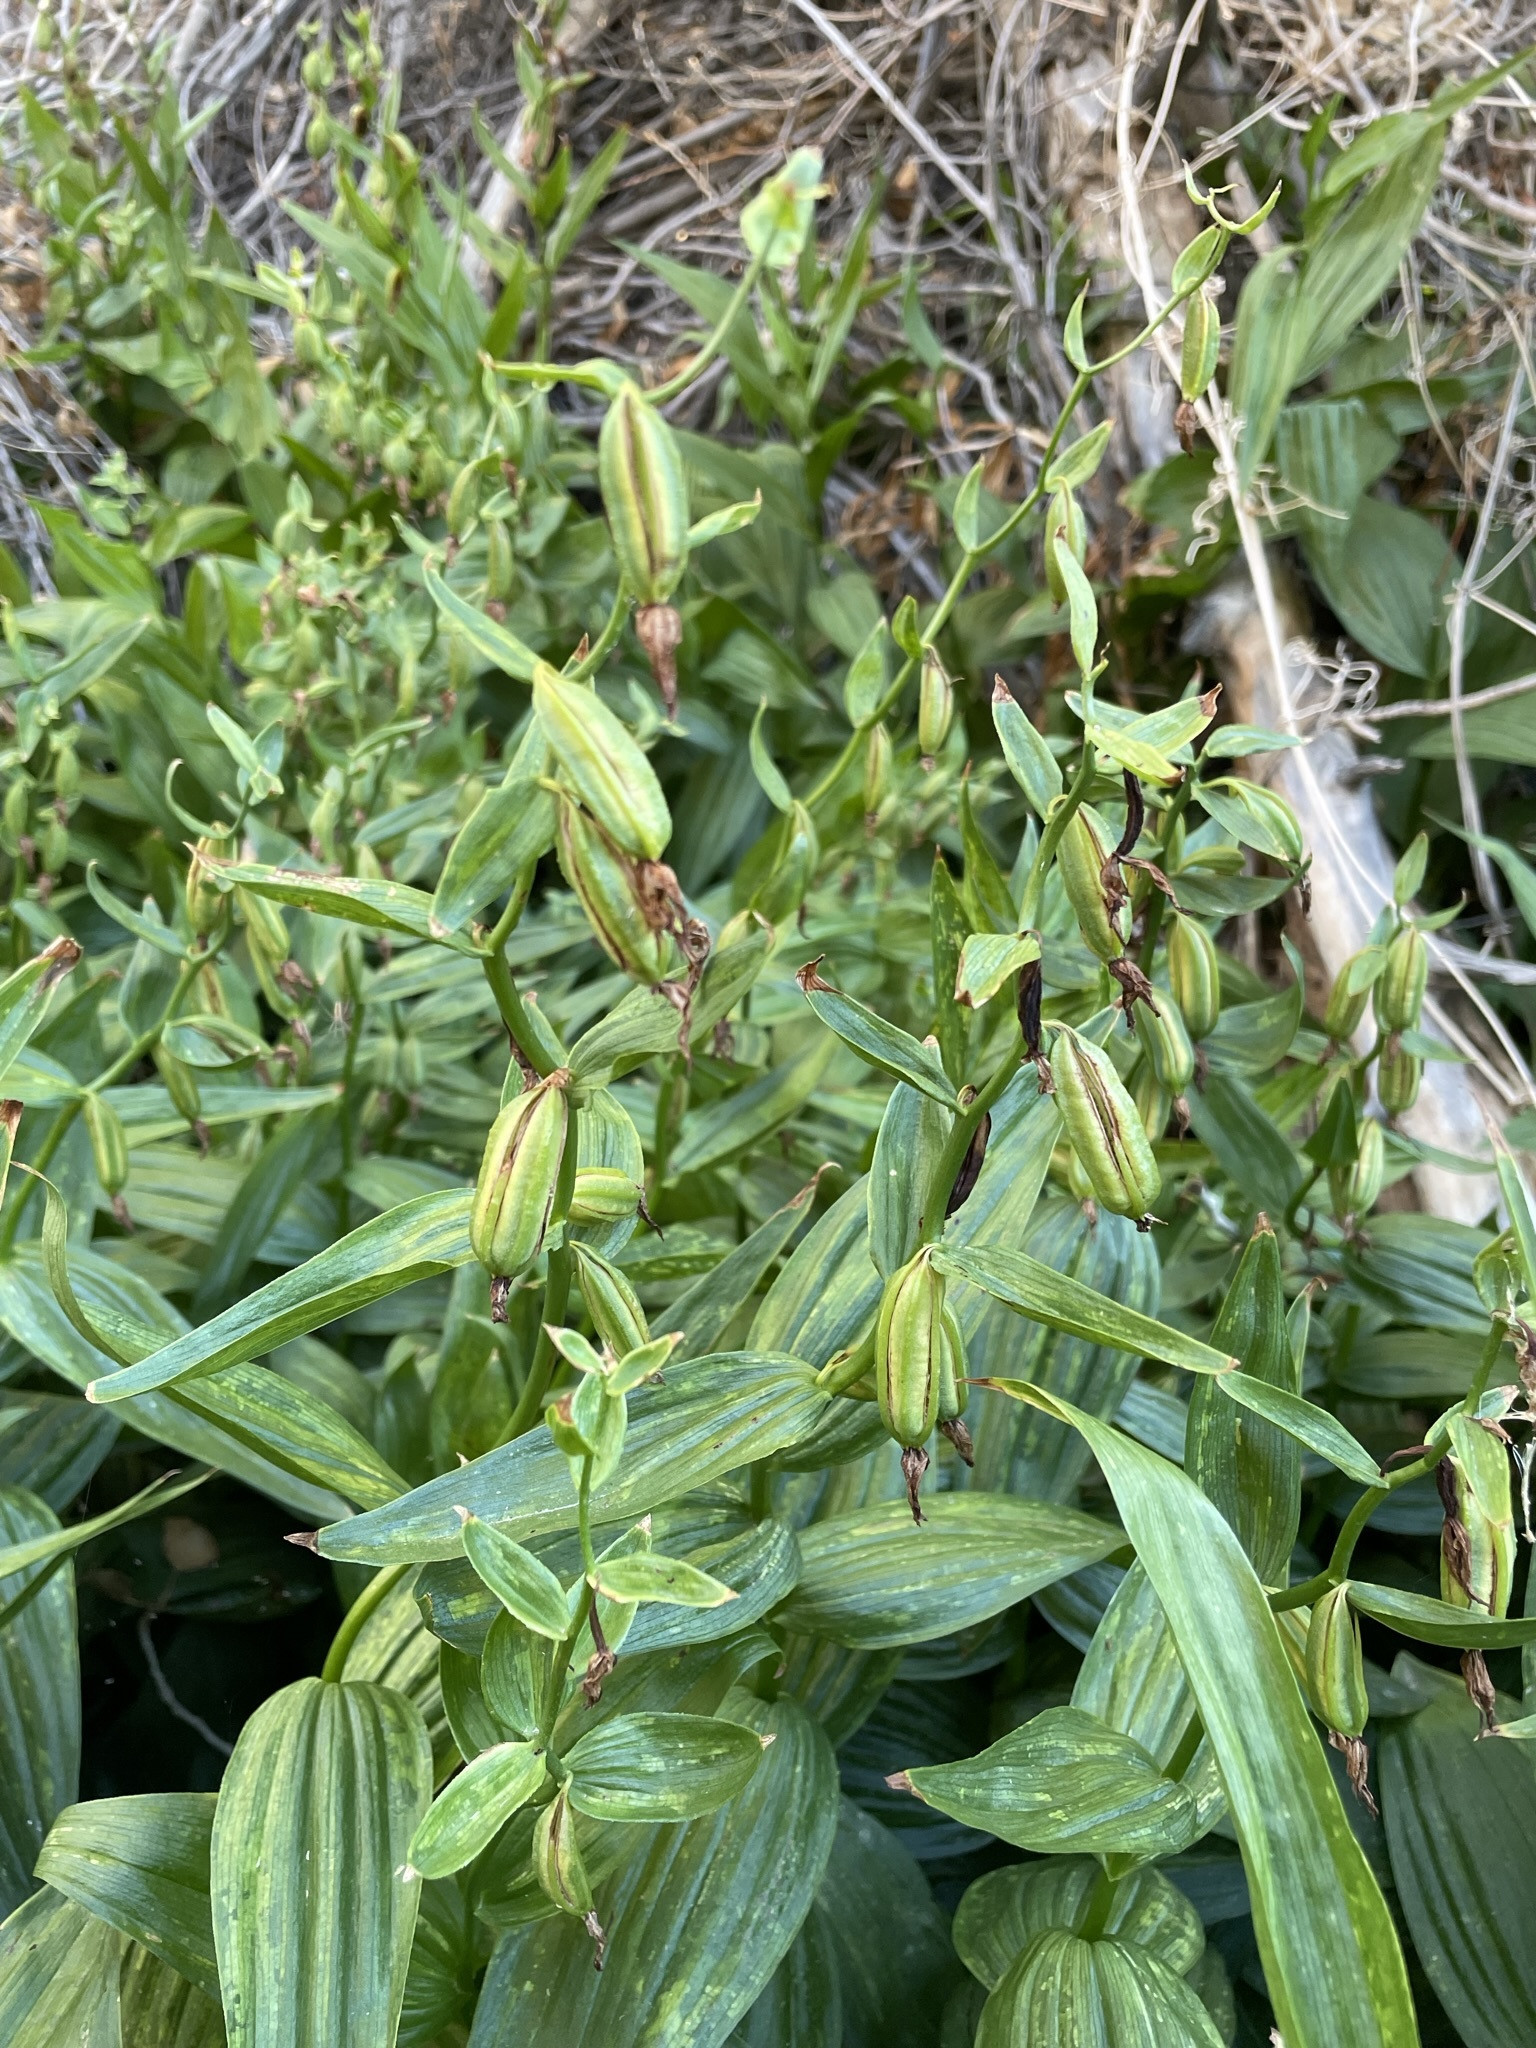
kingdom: Plantae
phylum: Tracheophyta
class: Liliopsida
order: Asparagales
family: Orchidaceae
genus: Epipactis
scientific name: Epipactis gigantea
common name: Chatterbox
